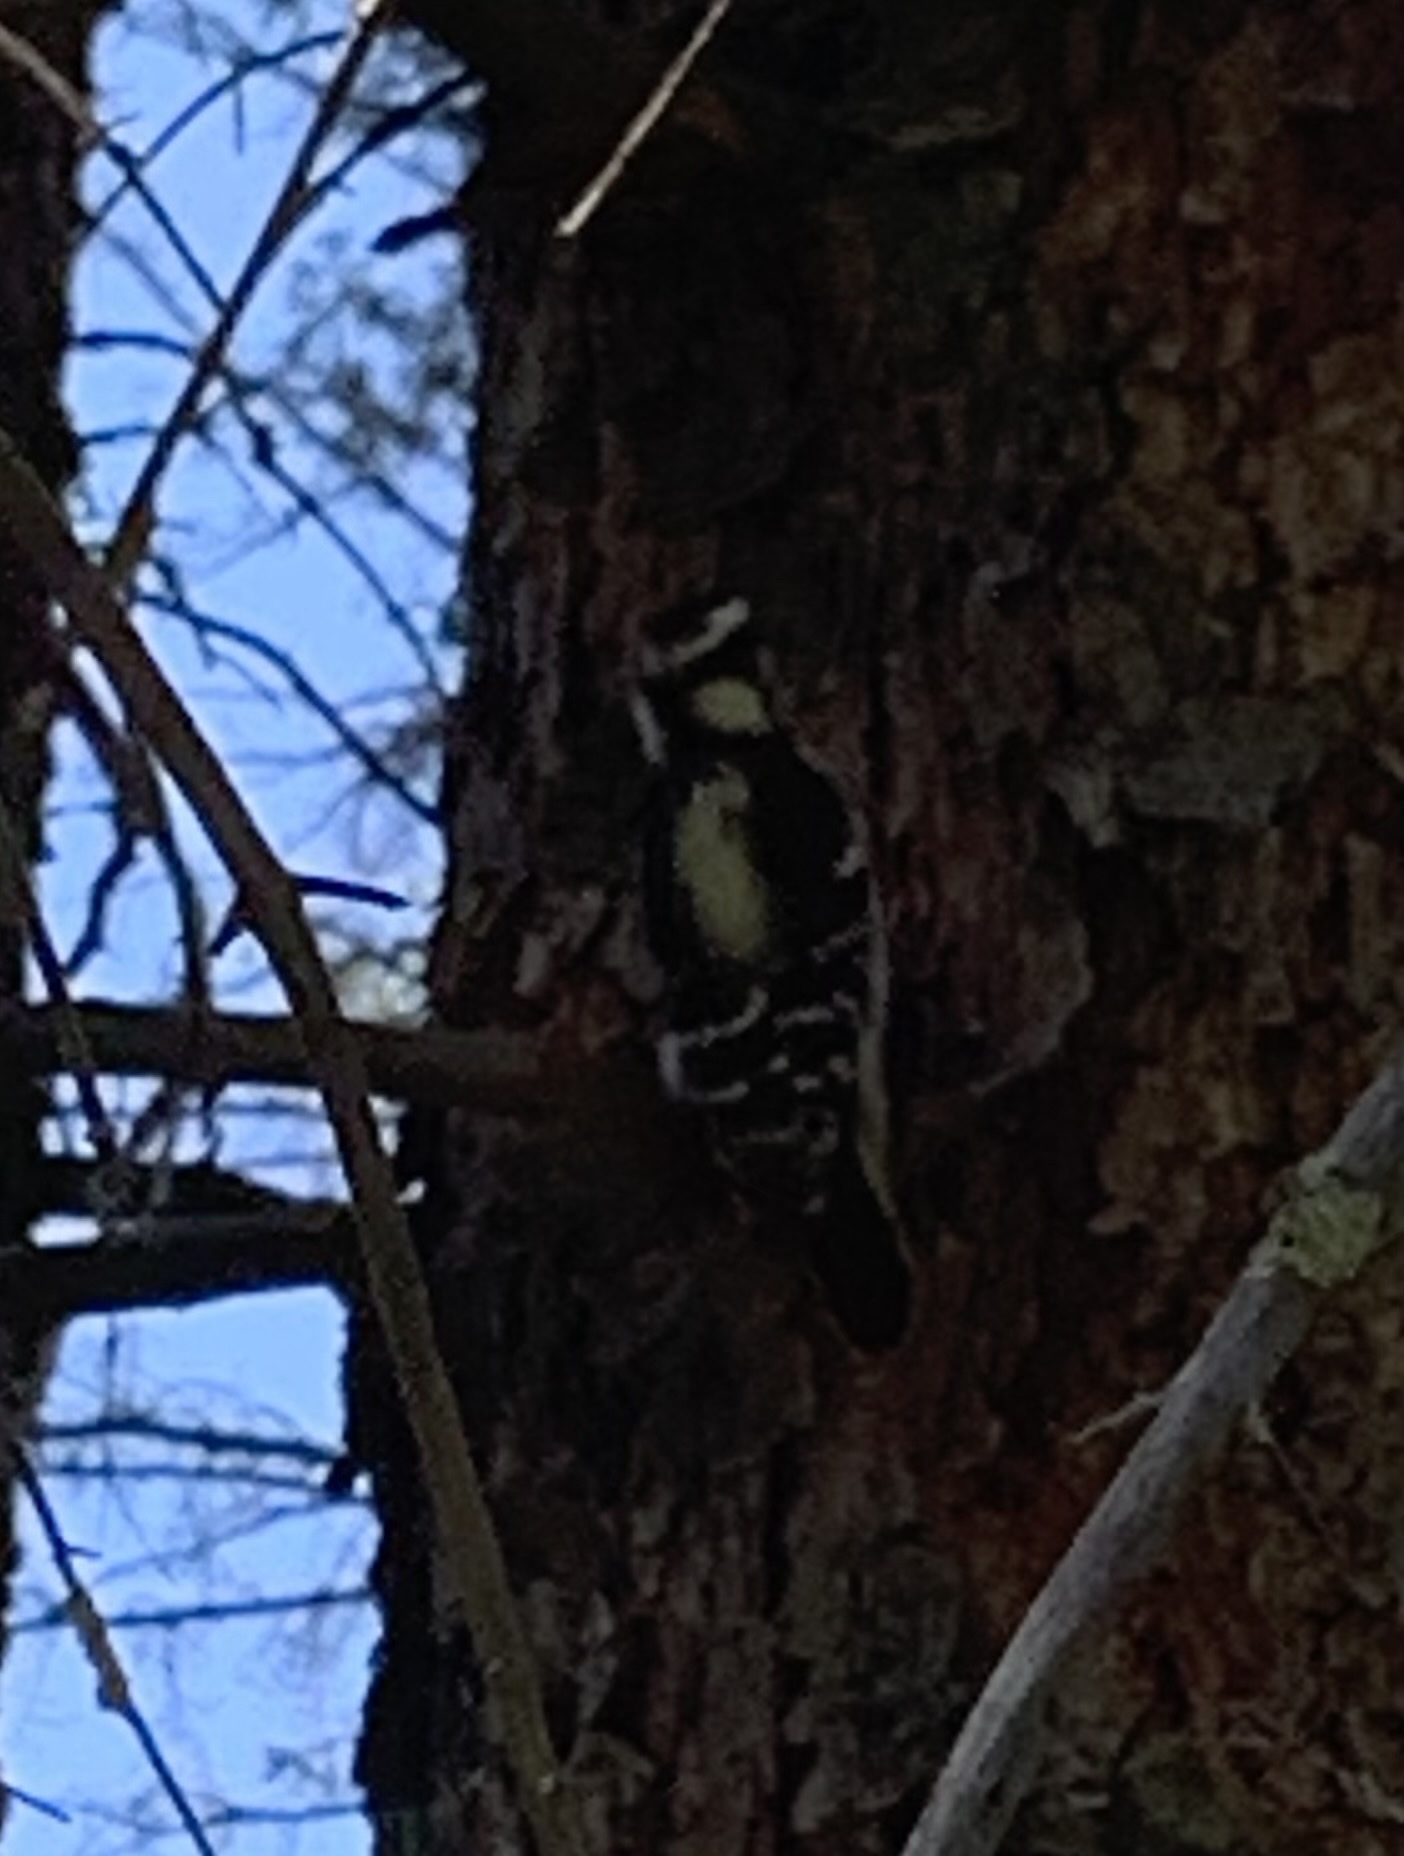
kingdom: Animalia
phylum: Chordata
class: Aves
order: Piciformes
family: Picidae
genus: Dryobates
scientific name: Dryobates pubescens
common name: Downy woodpecker
